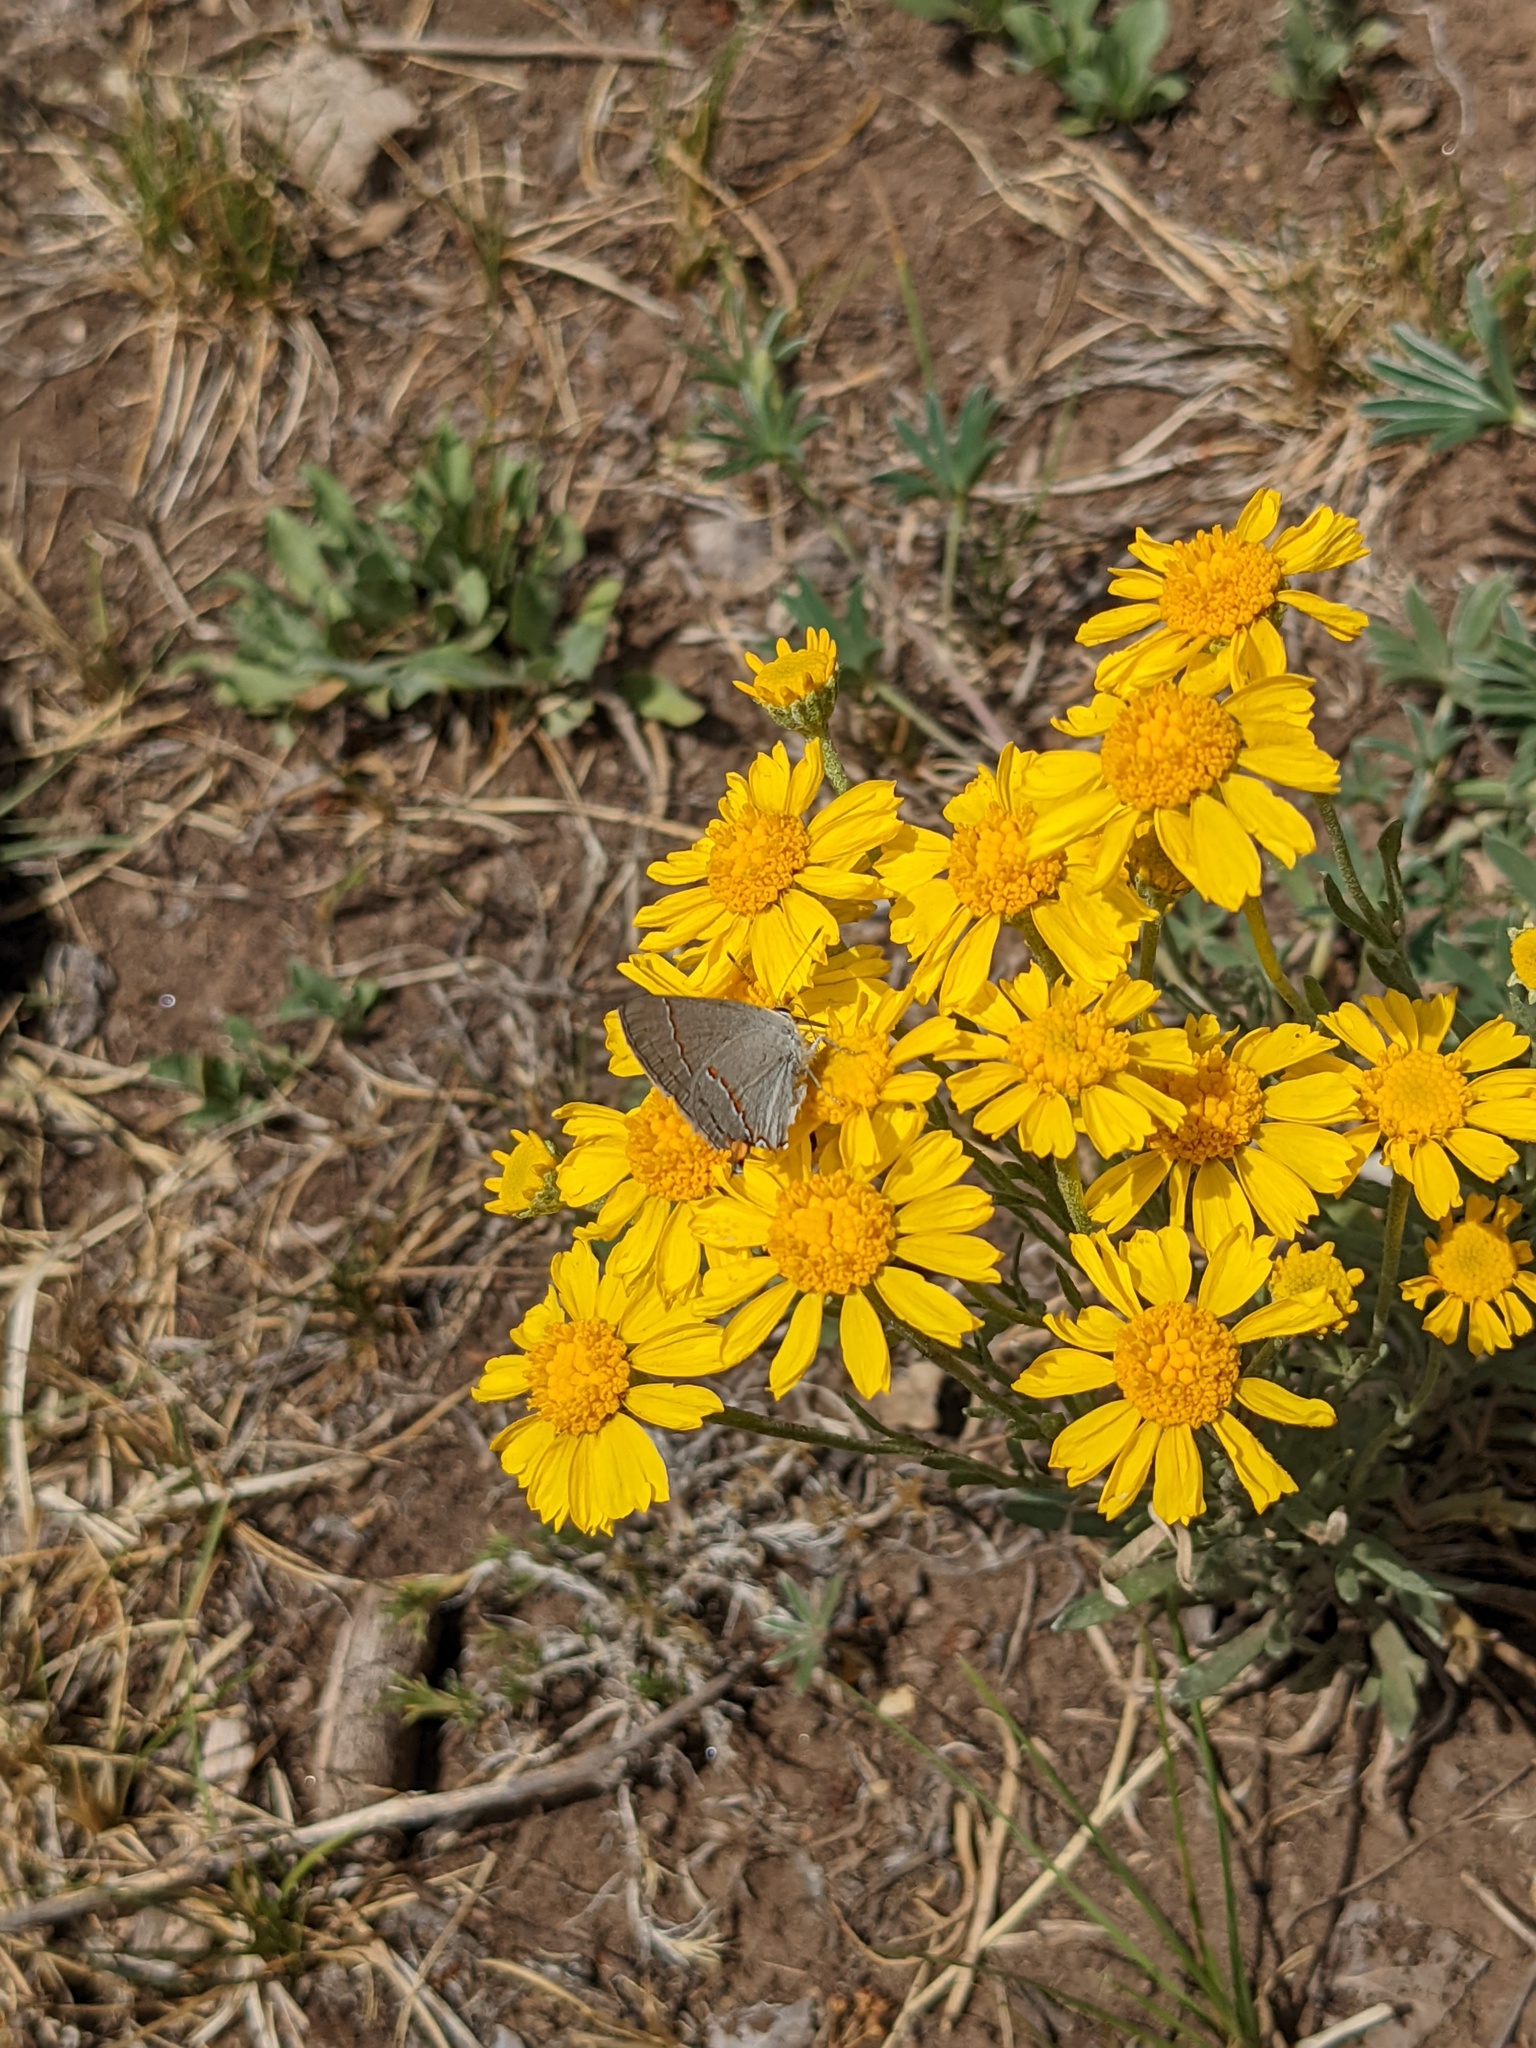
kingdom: Animalia
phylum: Arthropoda
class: Insecta
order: Lepidoptera
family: Lycaenidae
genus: Strymon
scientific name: Strymon melinus
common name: Gray hairstreak
